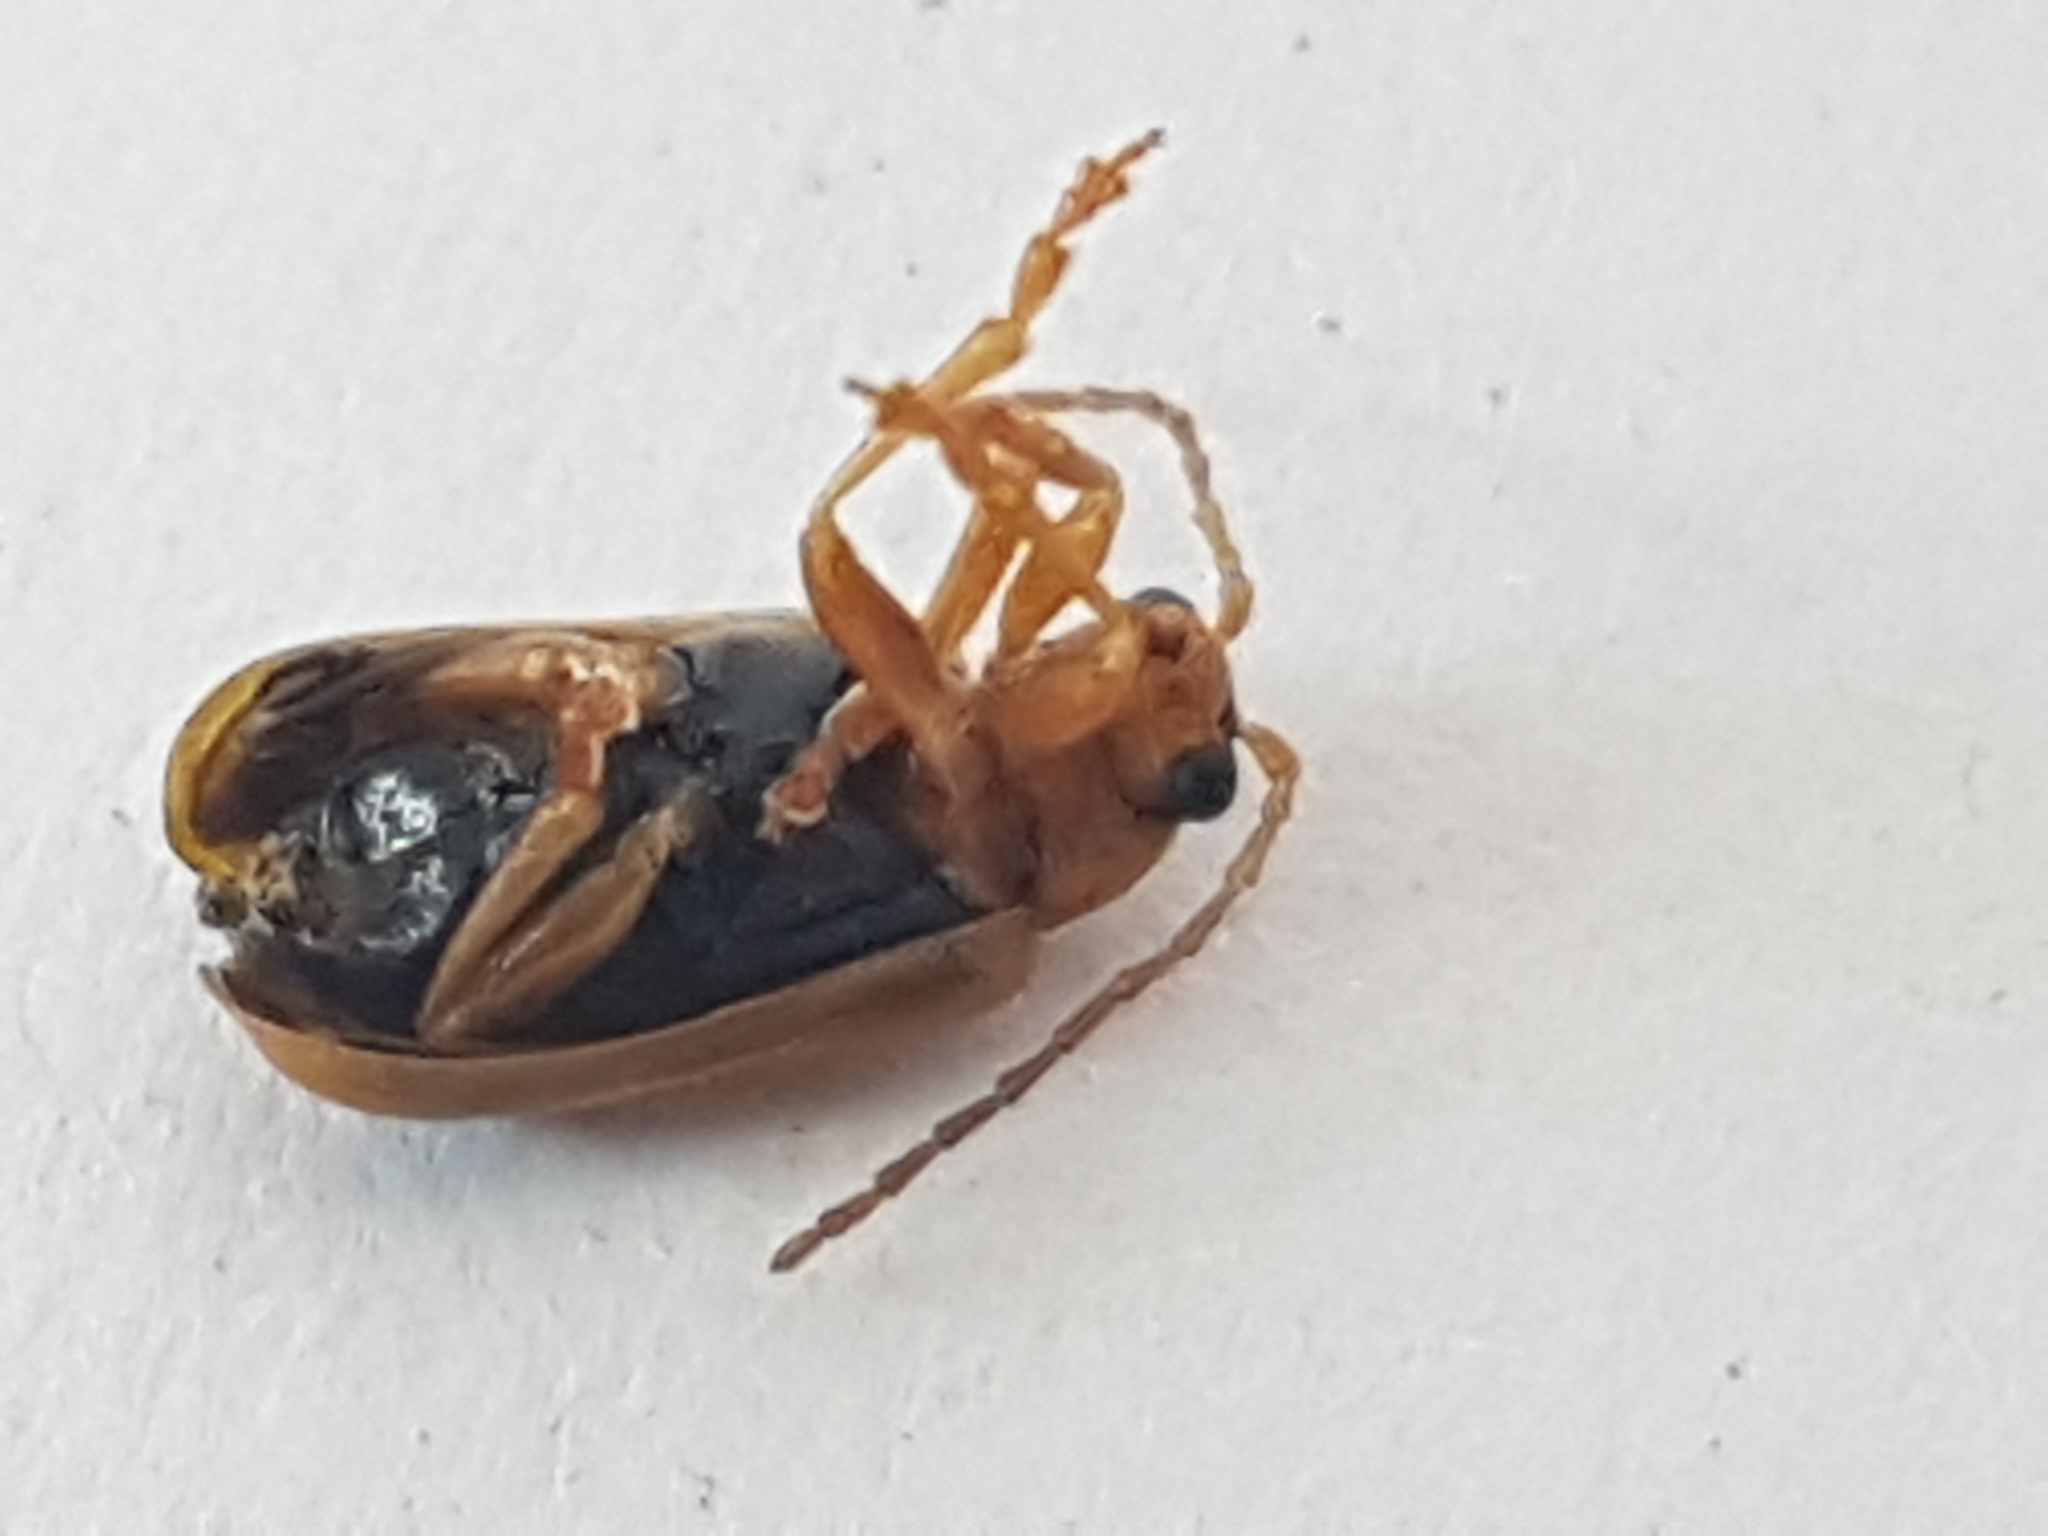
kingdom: Animalia
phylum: Arthropoda
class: Insecta
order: Coleoptera
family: Chrysomelidae
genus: Phyllobrotica
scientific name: Phyllobrotica quadrimaculata
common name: Skullcap leaf beetle
